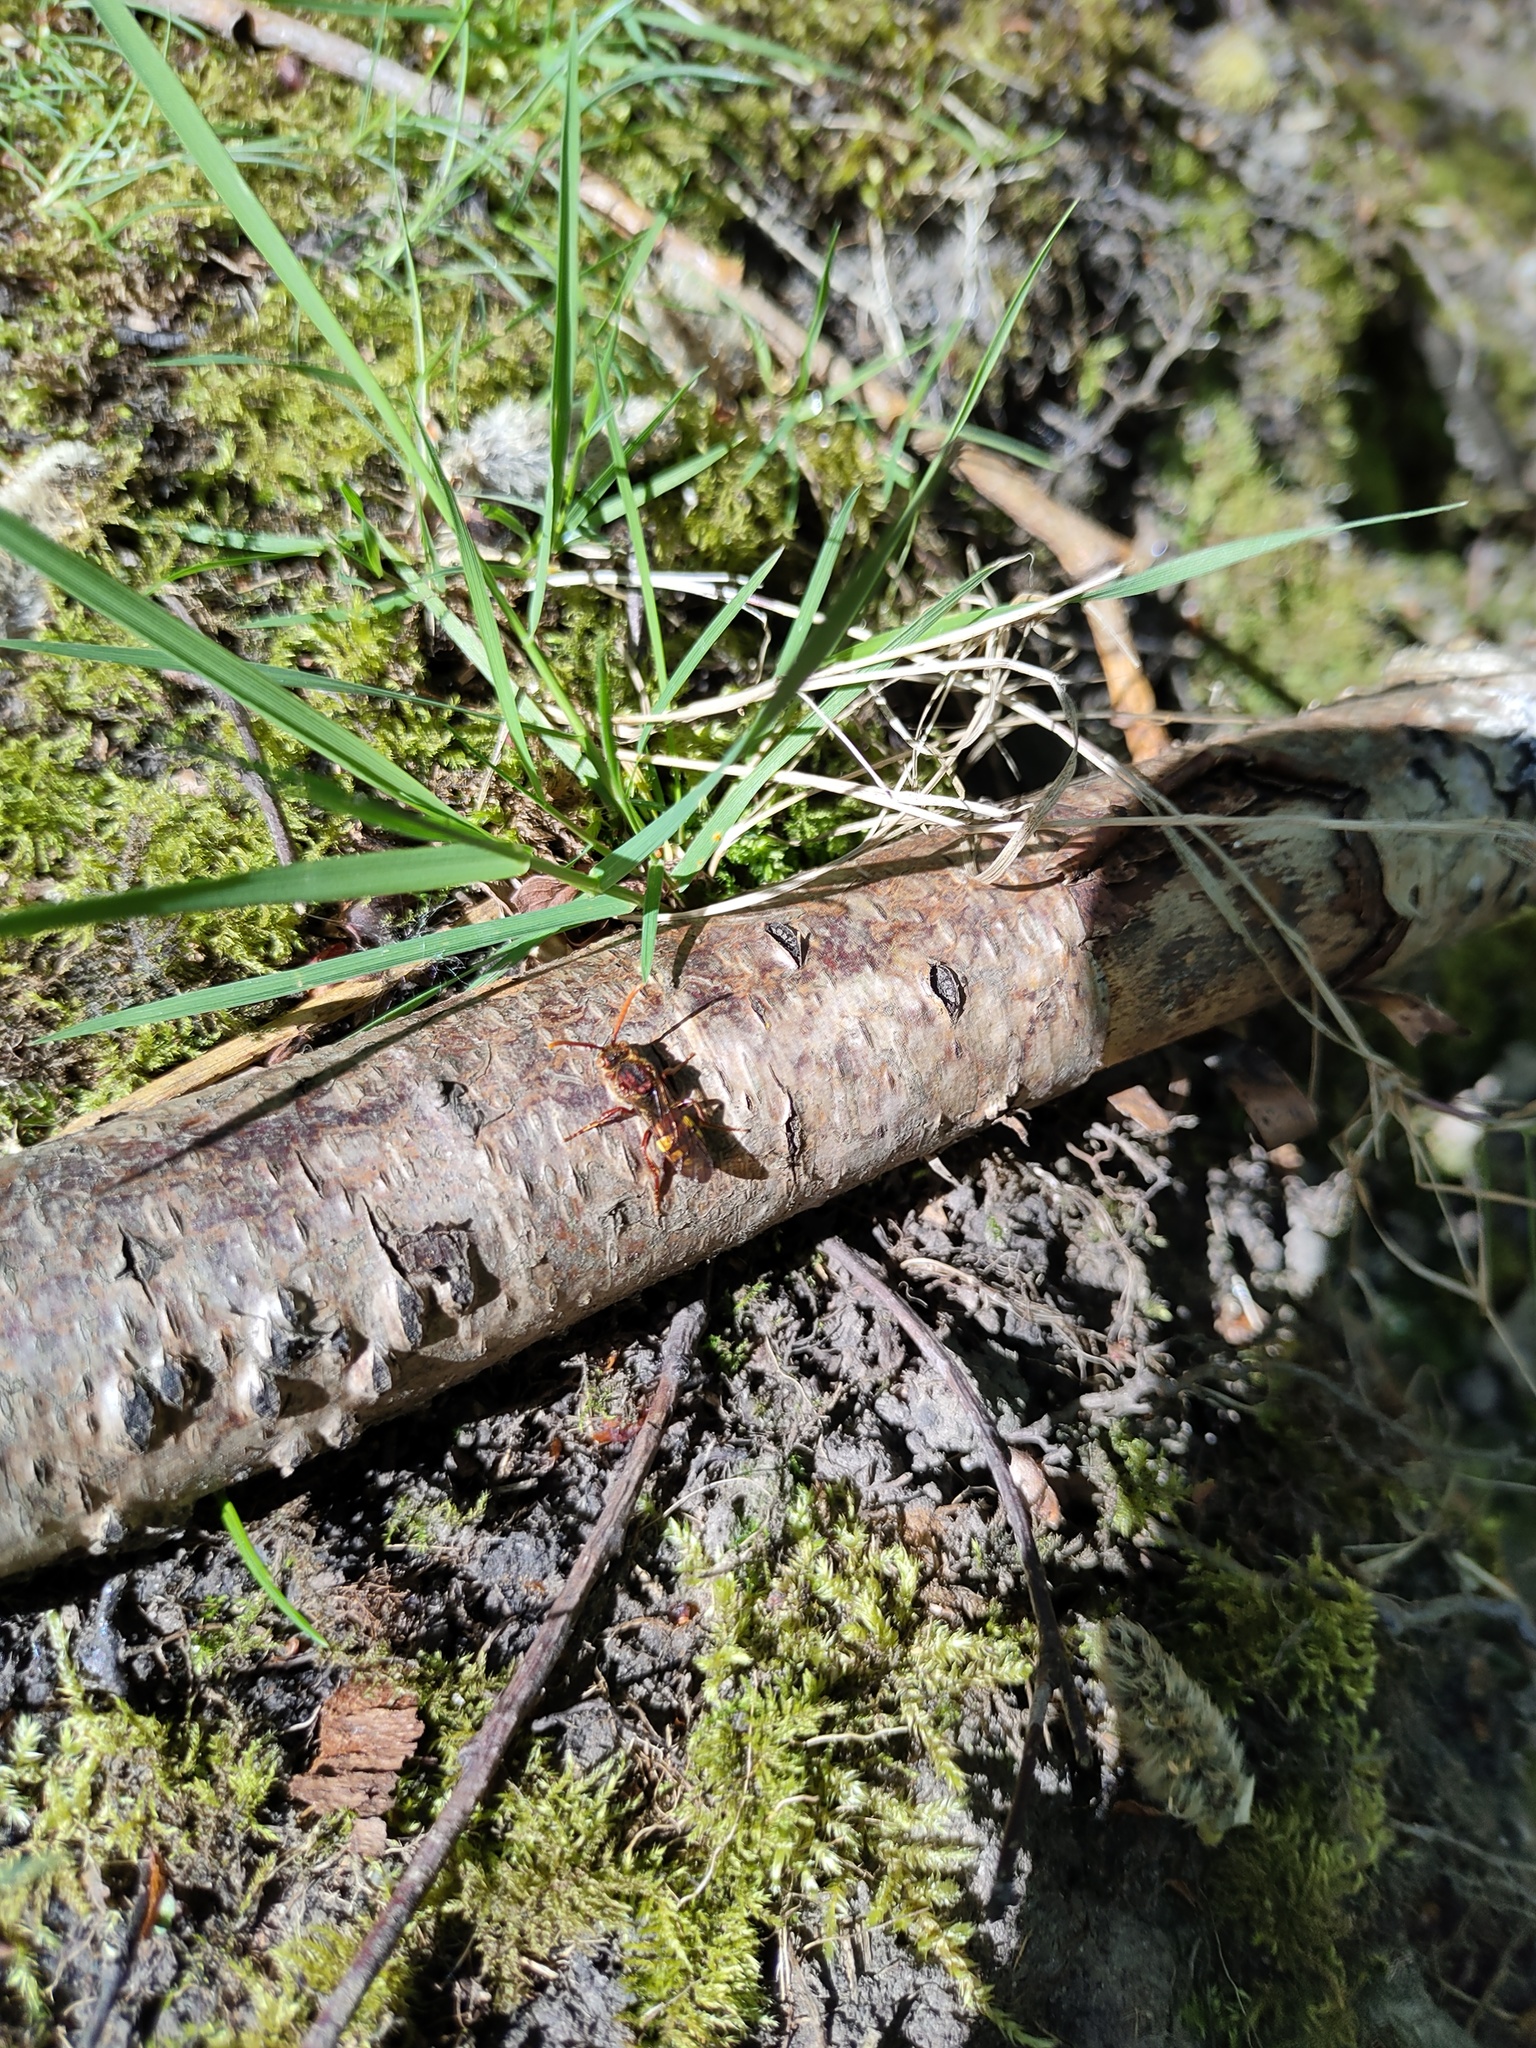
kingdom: Animalia
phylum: Arthropoda
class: Insecta
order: Hymenoptera
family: Apidae
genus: Nomada
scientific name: Nomada
